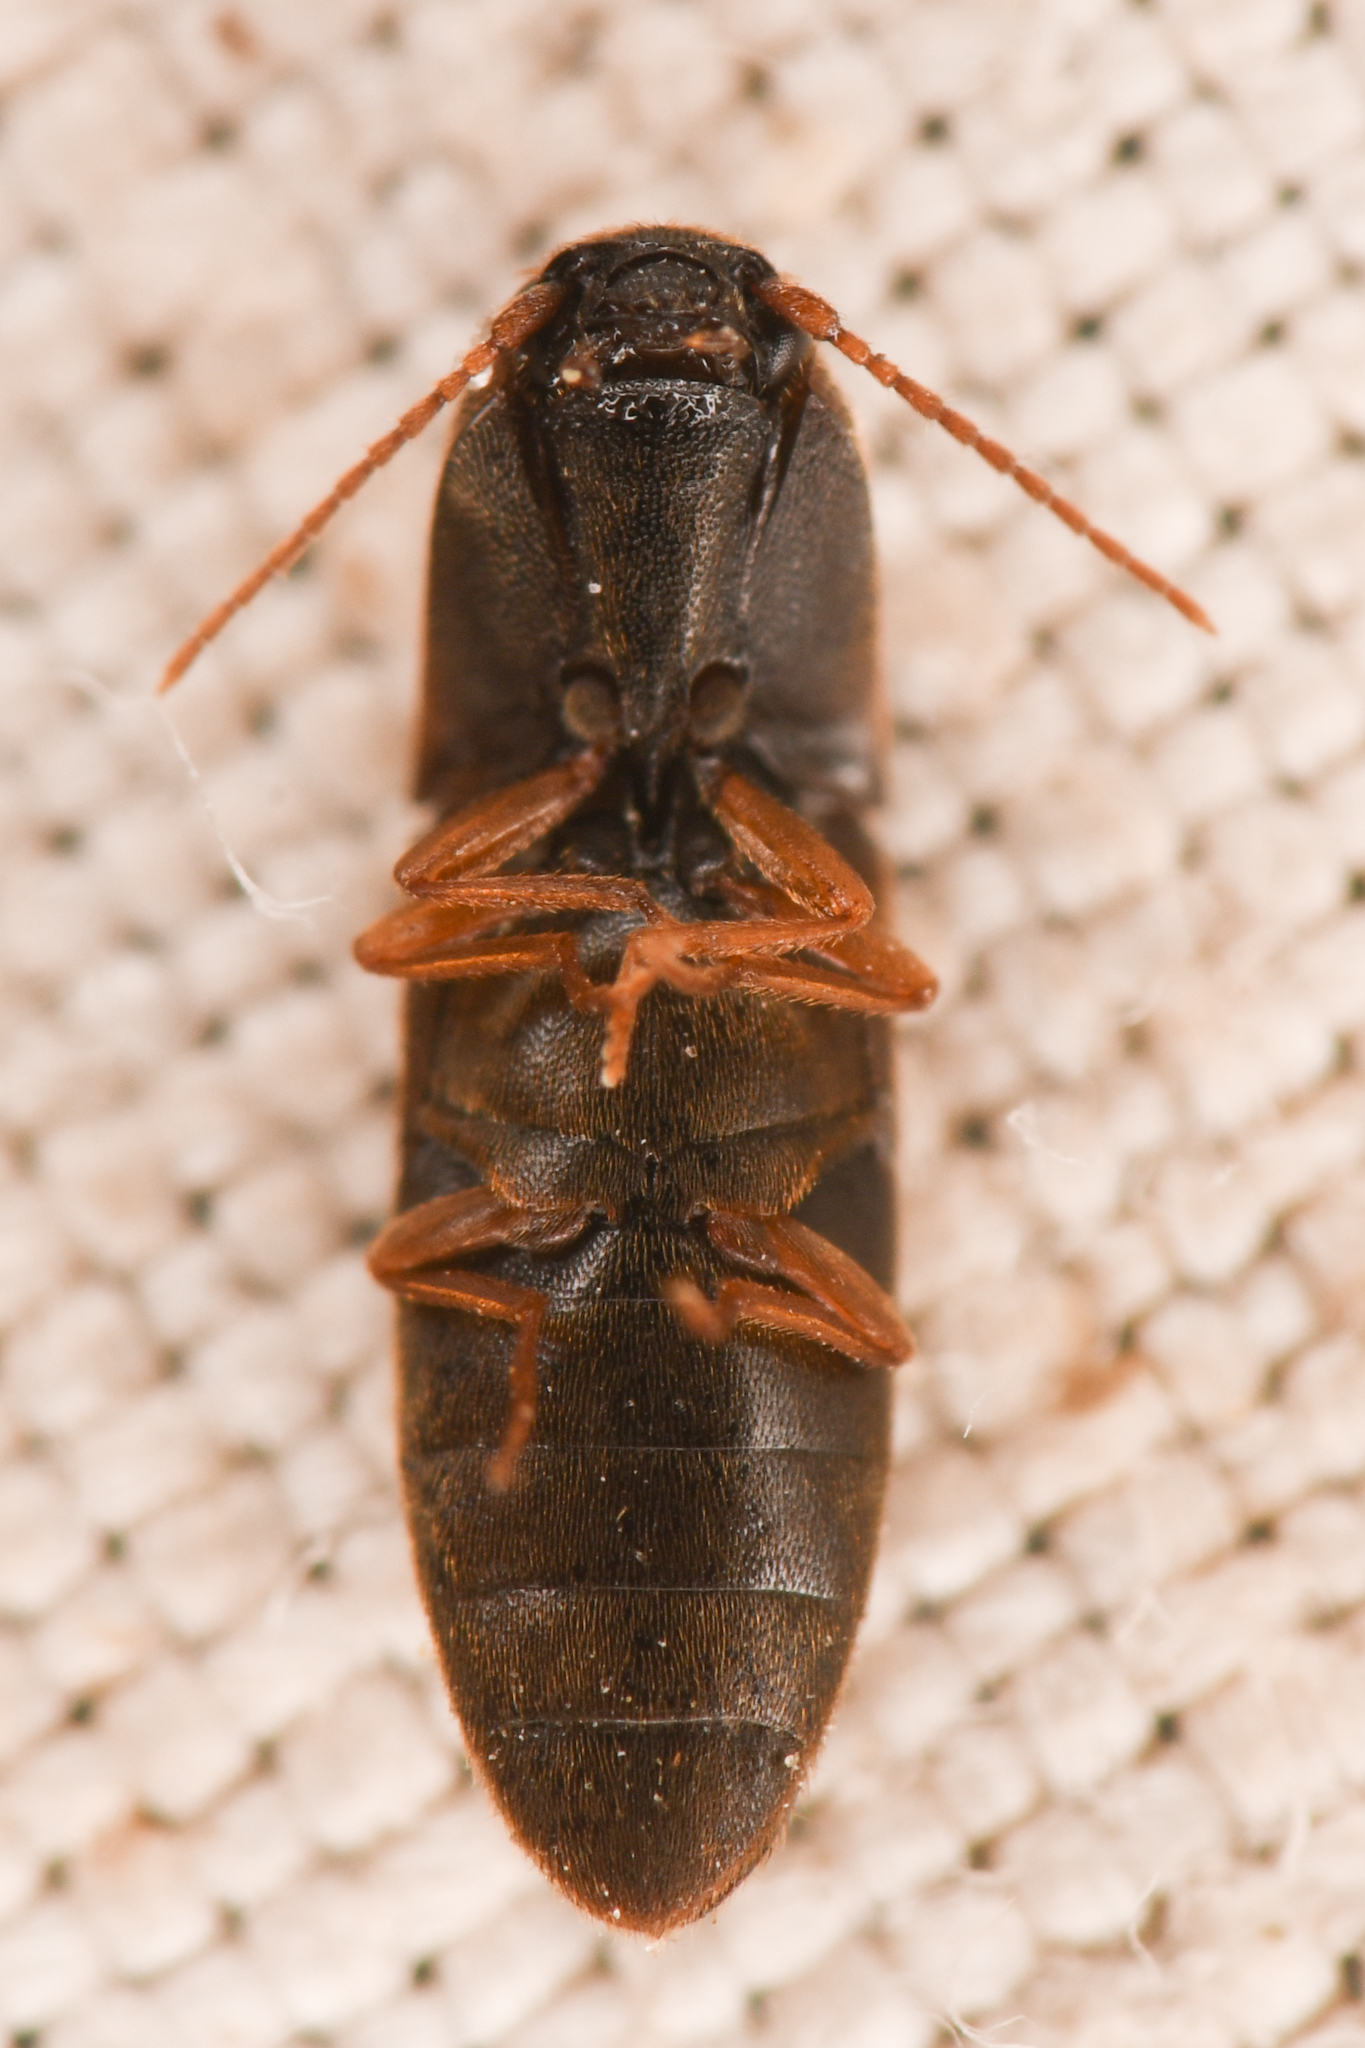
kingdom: Animalia
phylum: Arthropoda
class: Insecta
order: Coleoptera
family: Elateridae
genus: Idolus
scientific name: Idolus occidentalis
